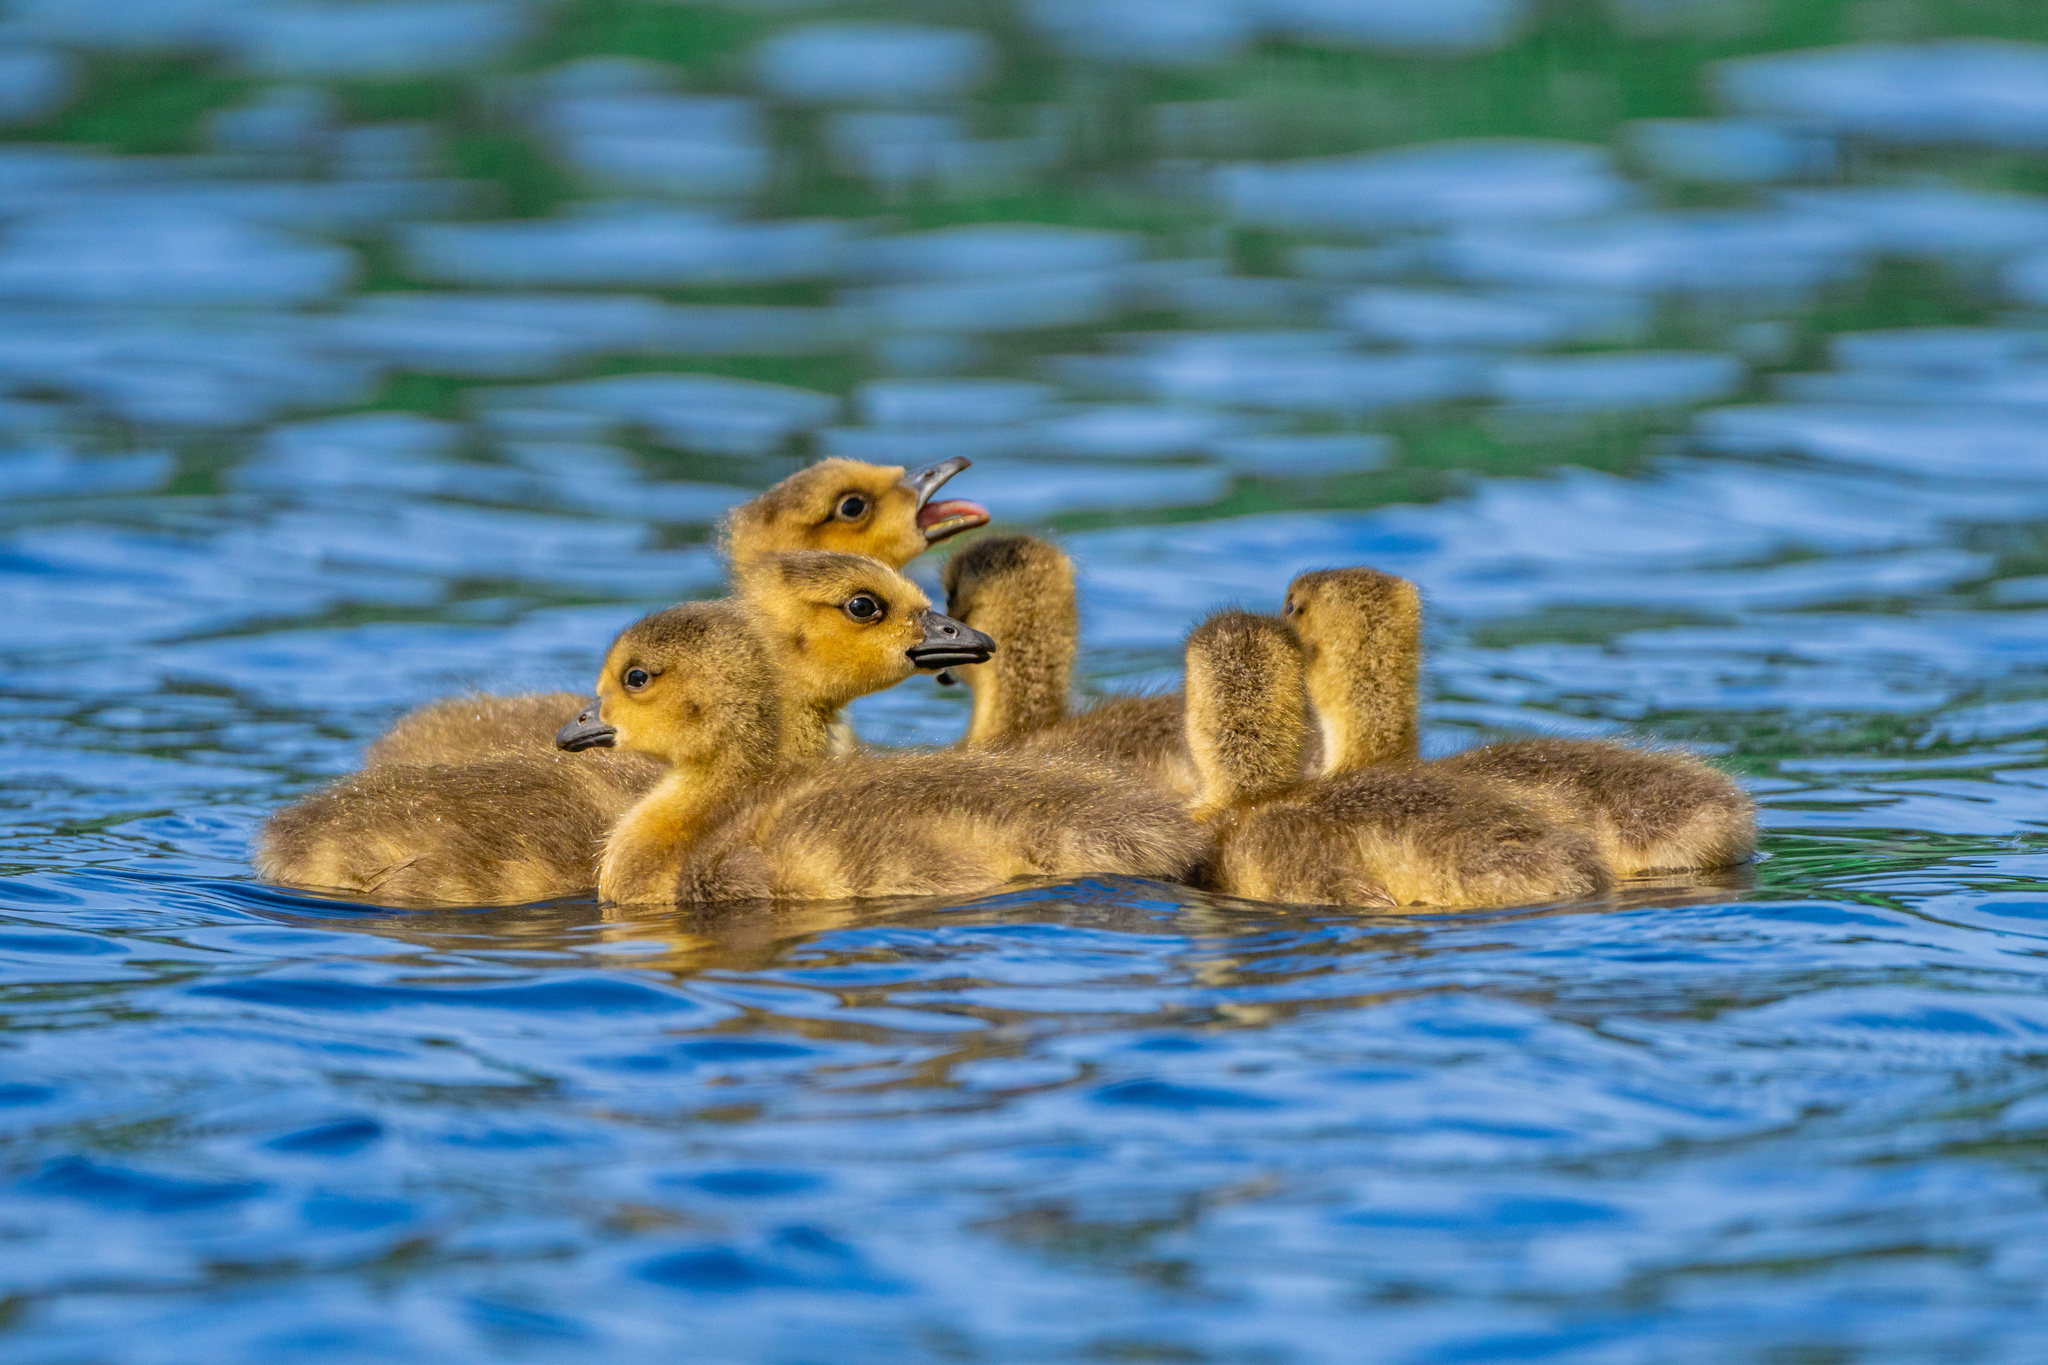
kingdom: Animalia
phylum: Chordata
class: Aves
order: Anseriformes
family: Anatidae
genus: Branta
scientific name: Branta canadensis
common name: Canada goose
